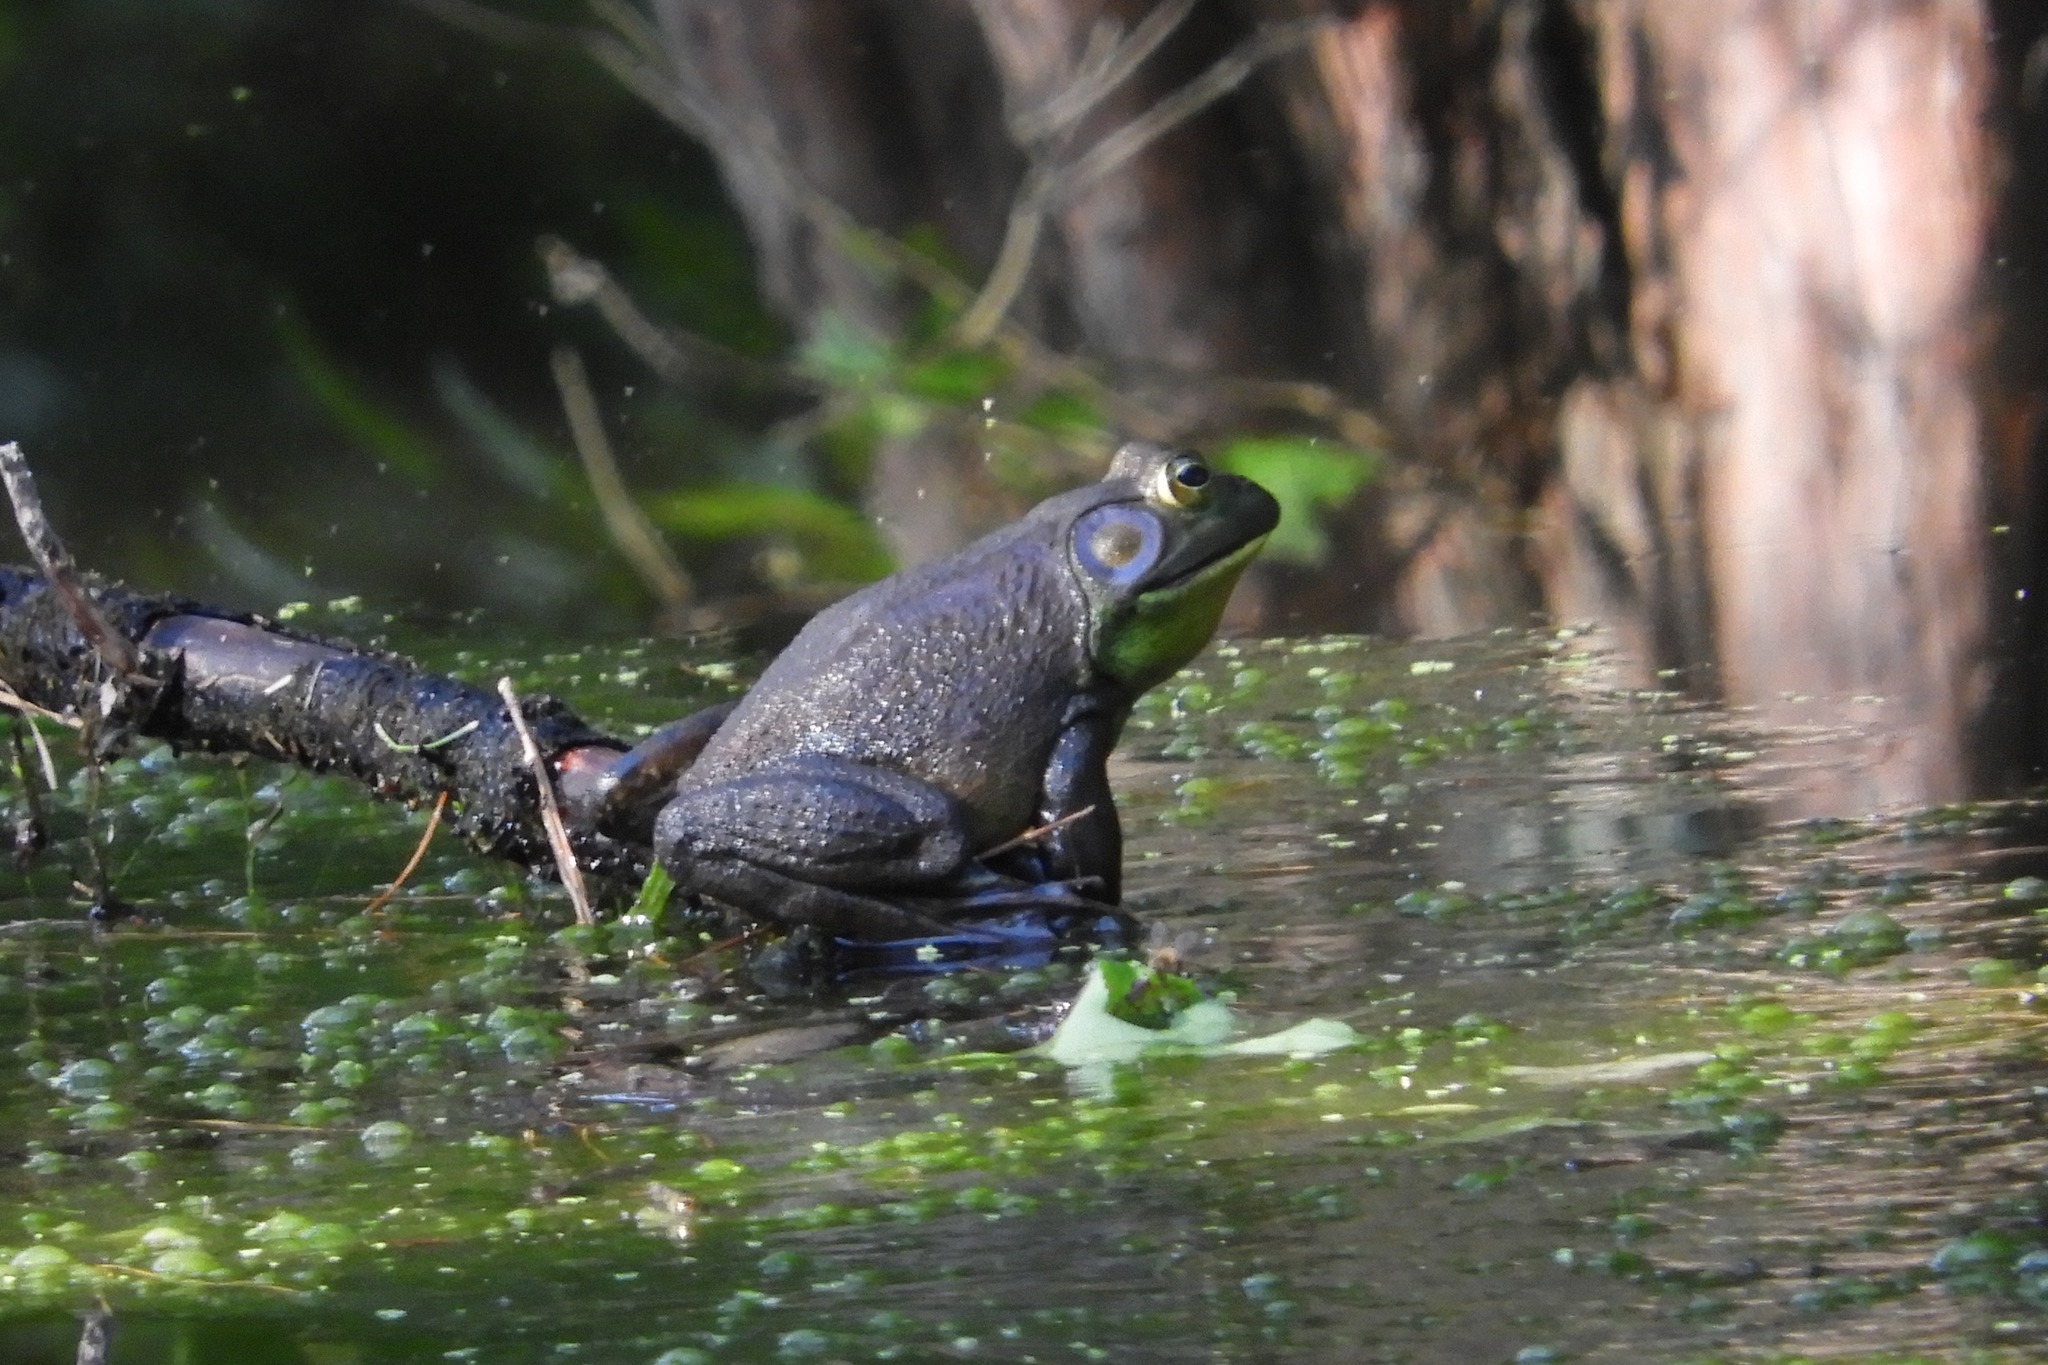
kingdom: Animalia
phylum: Chordata
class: Amphibia
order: Anura
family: Ranidae
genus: Lithobates
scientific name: Lithobates catesbeianus
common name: American bullfrog
